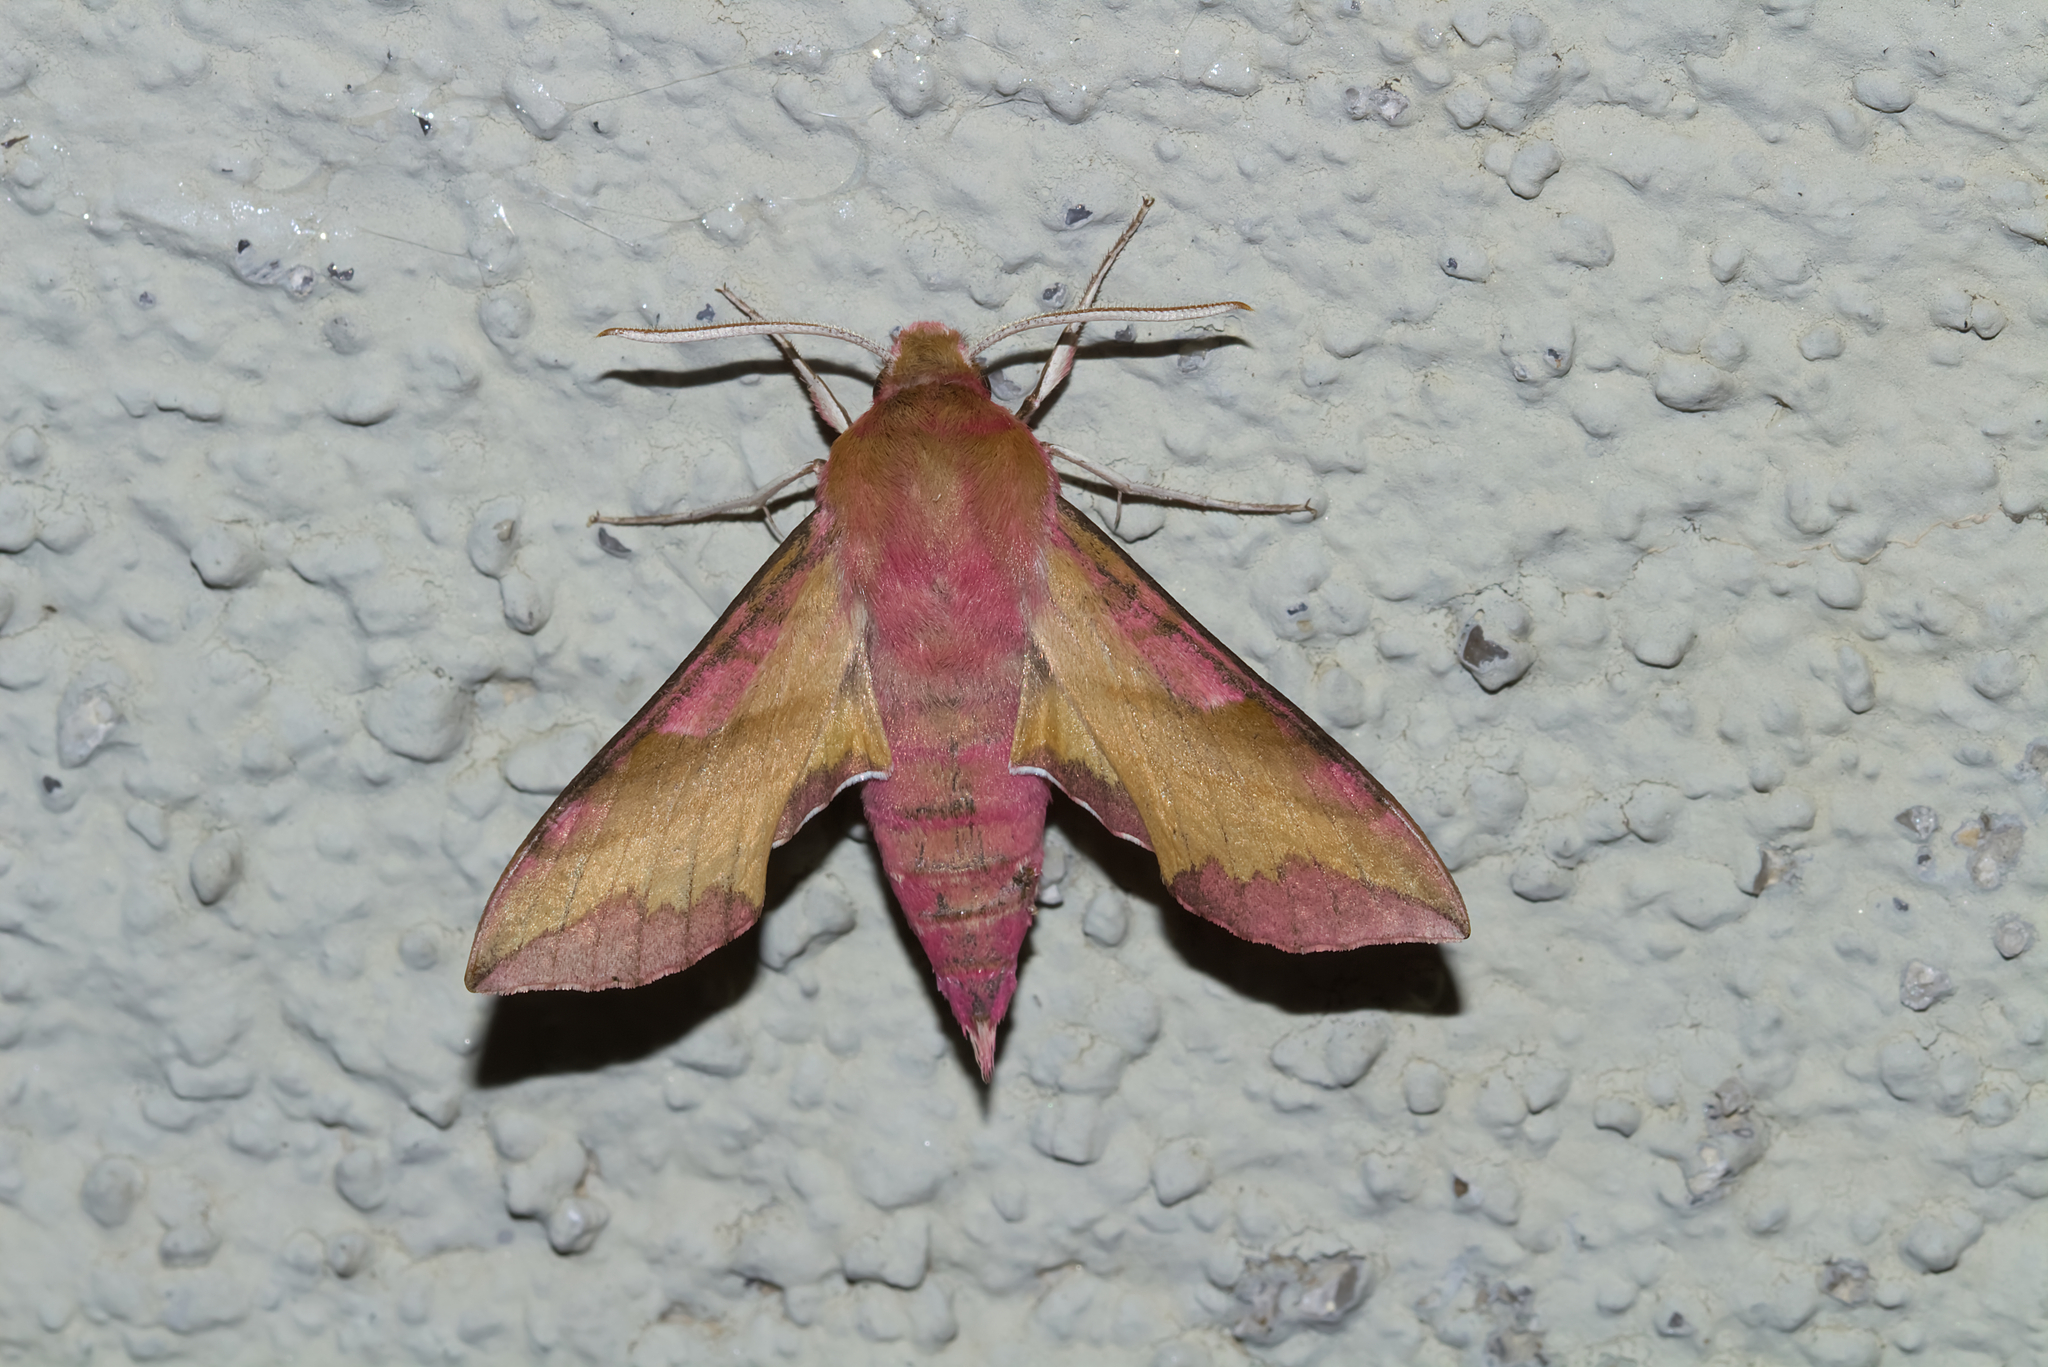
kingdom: Animalia
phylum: Arthropoda
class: Insecta
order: Lepidoptera
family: Sphingidae
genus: Deilephila
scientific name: Deilephila porcellus
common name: Small elephant hawk-moth
